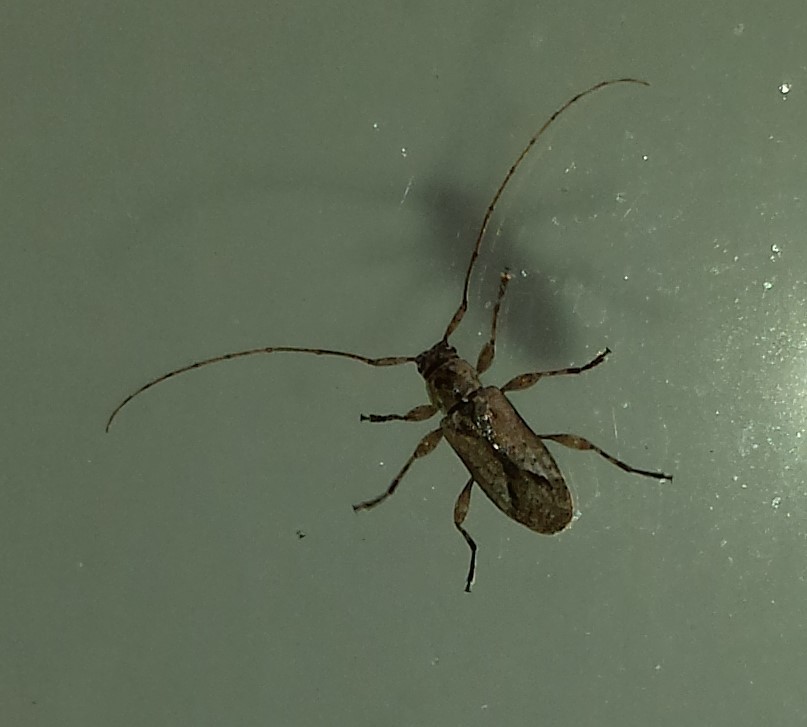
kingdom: Animalia
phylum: Arthropoda
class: Insecta
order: Coleoptera
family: Cerambycidae
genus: Sternidius
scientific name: Sternidius alpha
